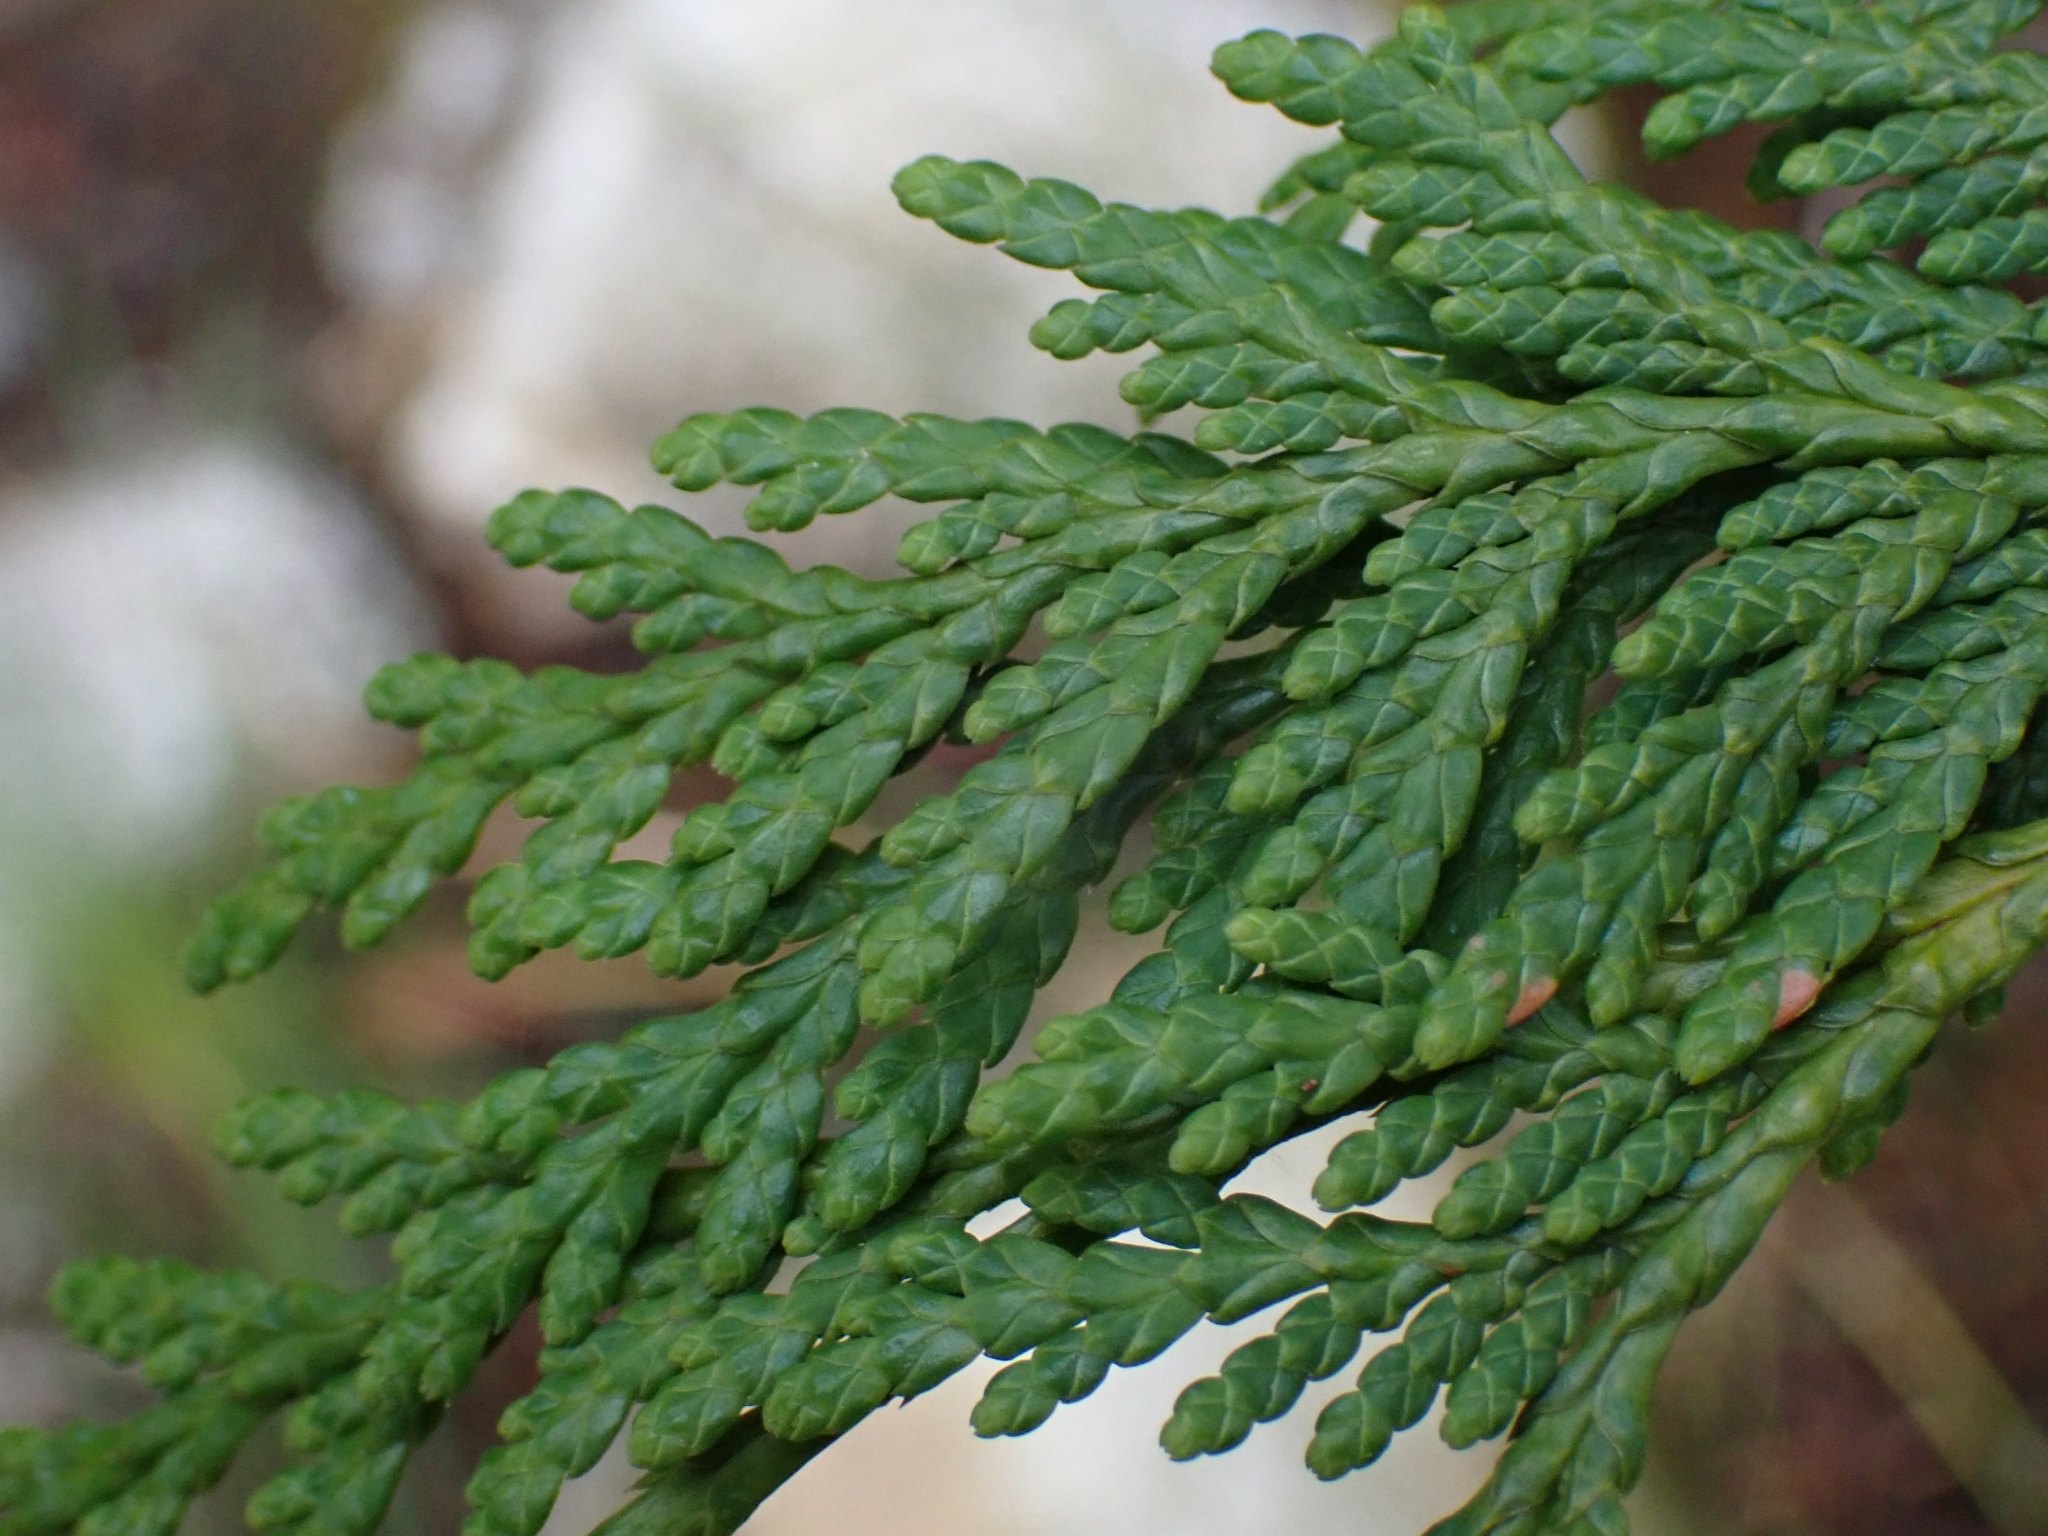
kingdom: Plantae
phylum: Tracheophyta
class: Pinopsida
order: Pinales
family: Cupressaceae
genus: Thuja
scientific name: Thuja plicata
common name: Western red-cedar
